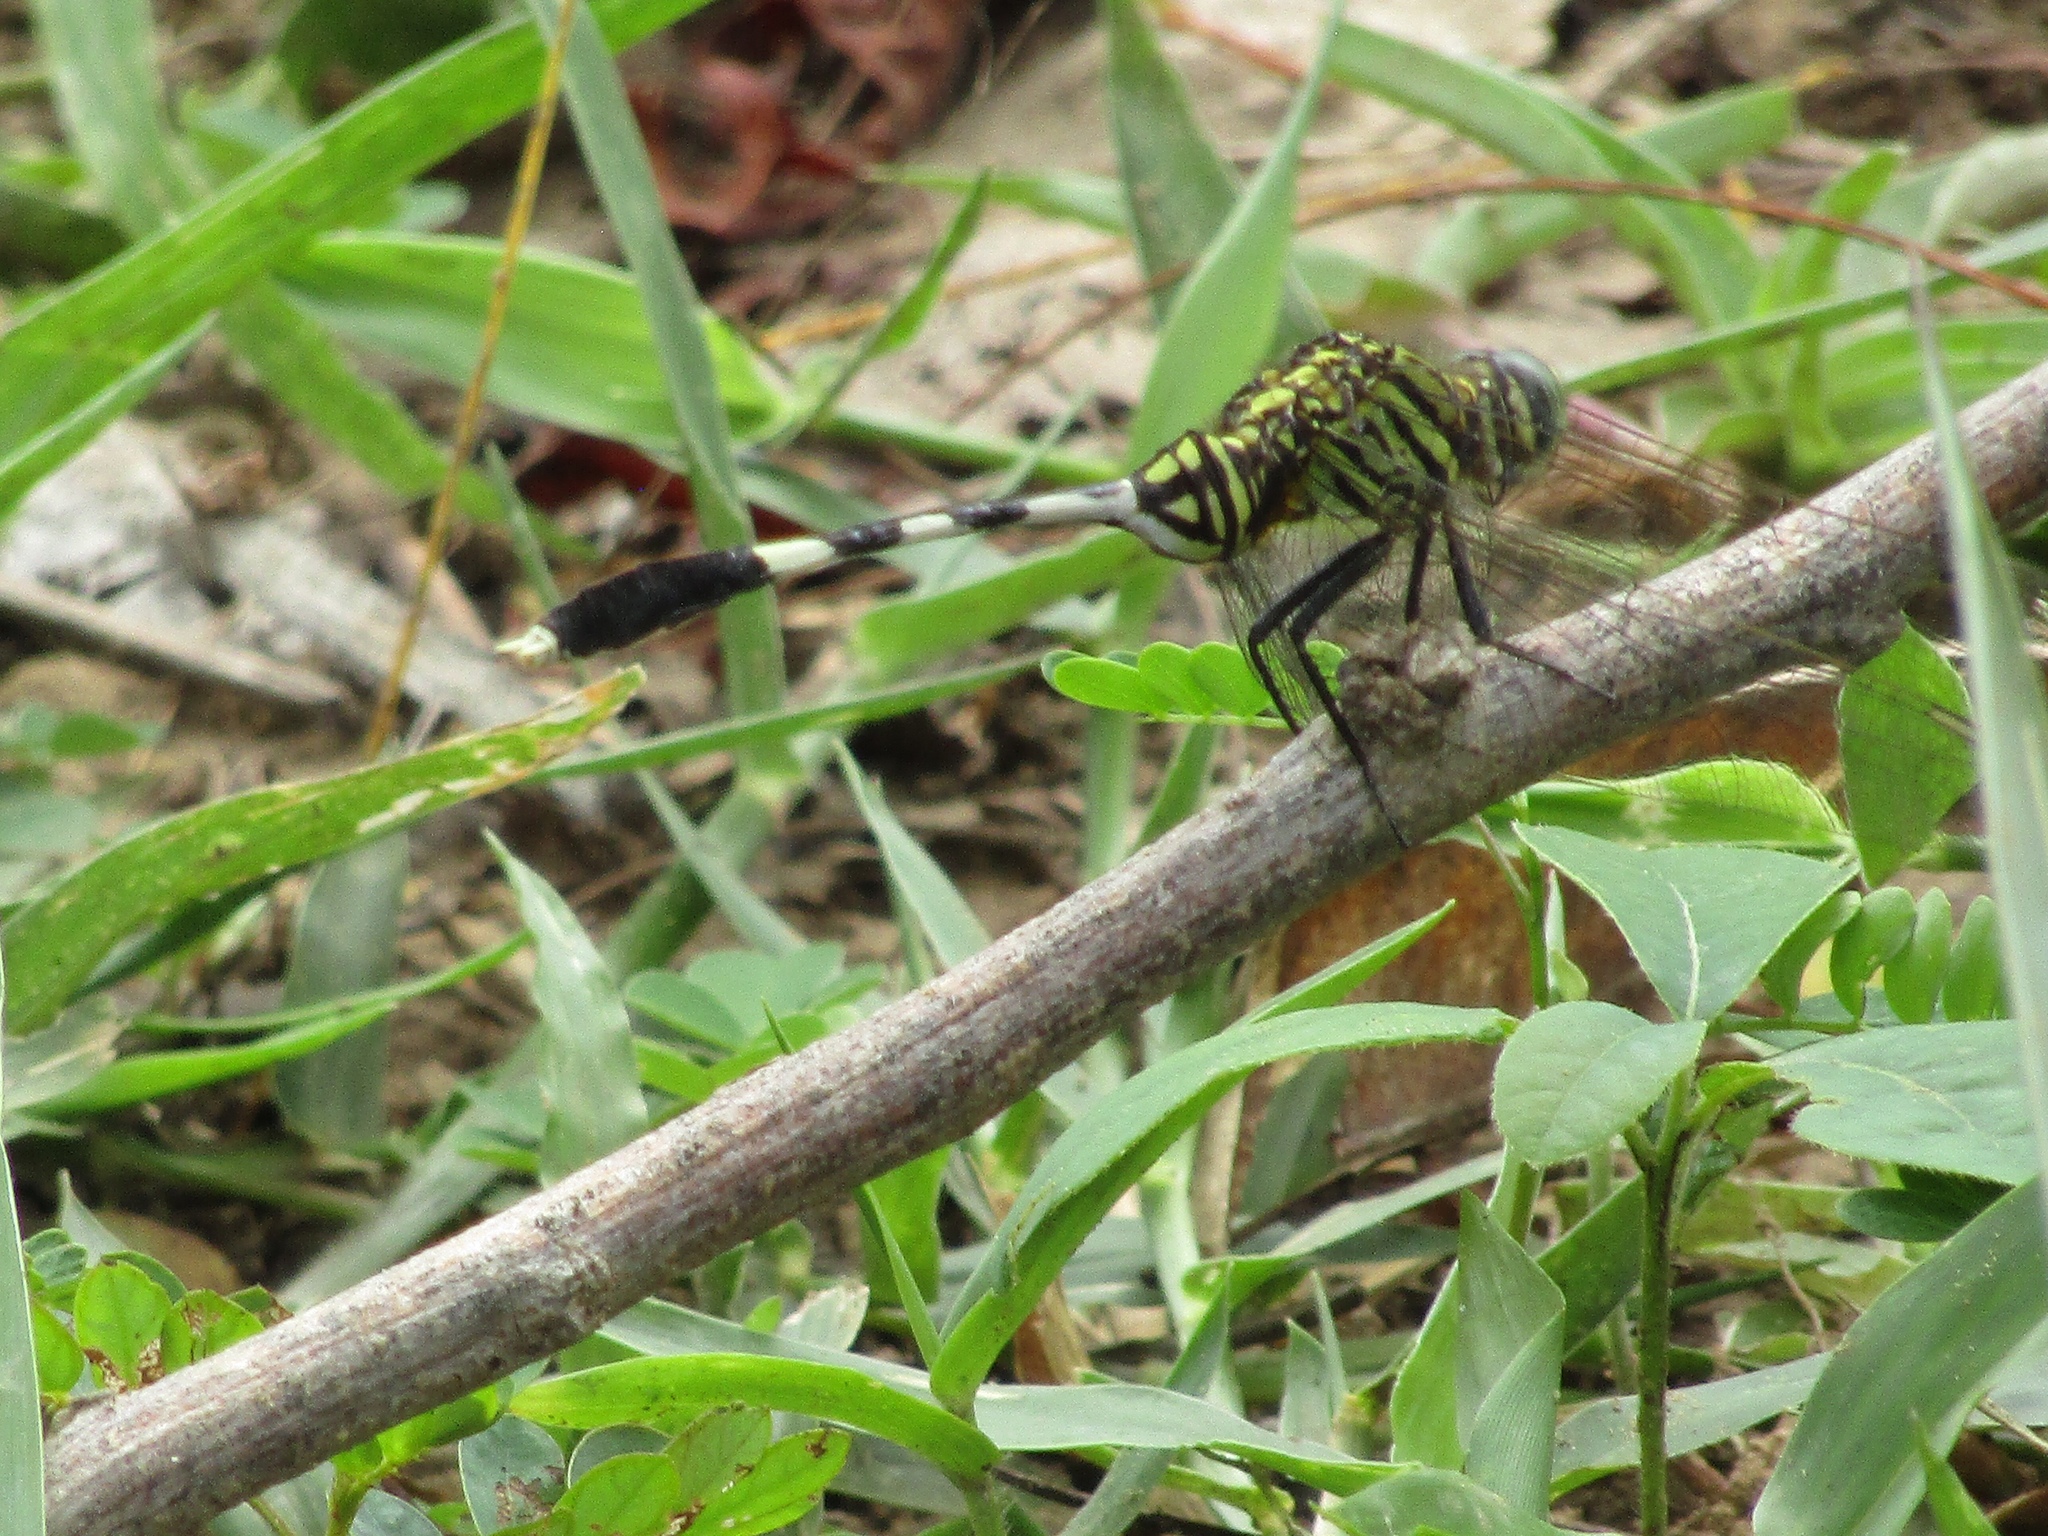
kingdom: Animalia
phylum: Arthropoda
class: Insecta
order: Odonata
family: Libellulidae
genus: Orthetrum
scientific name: Orthetrum sabina
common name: Slender skimmer
